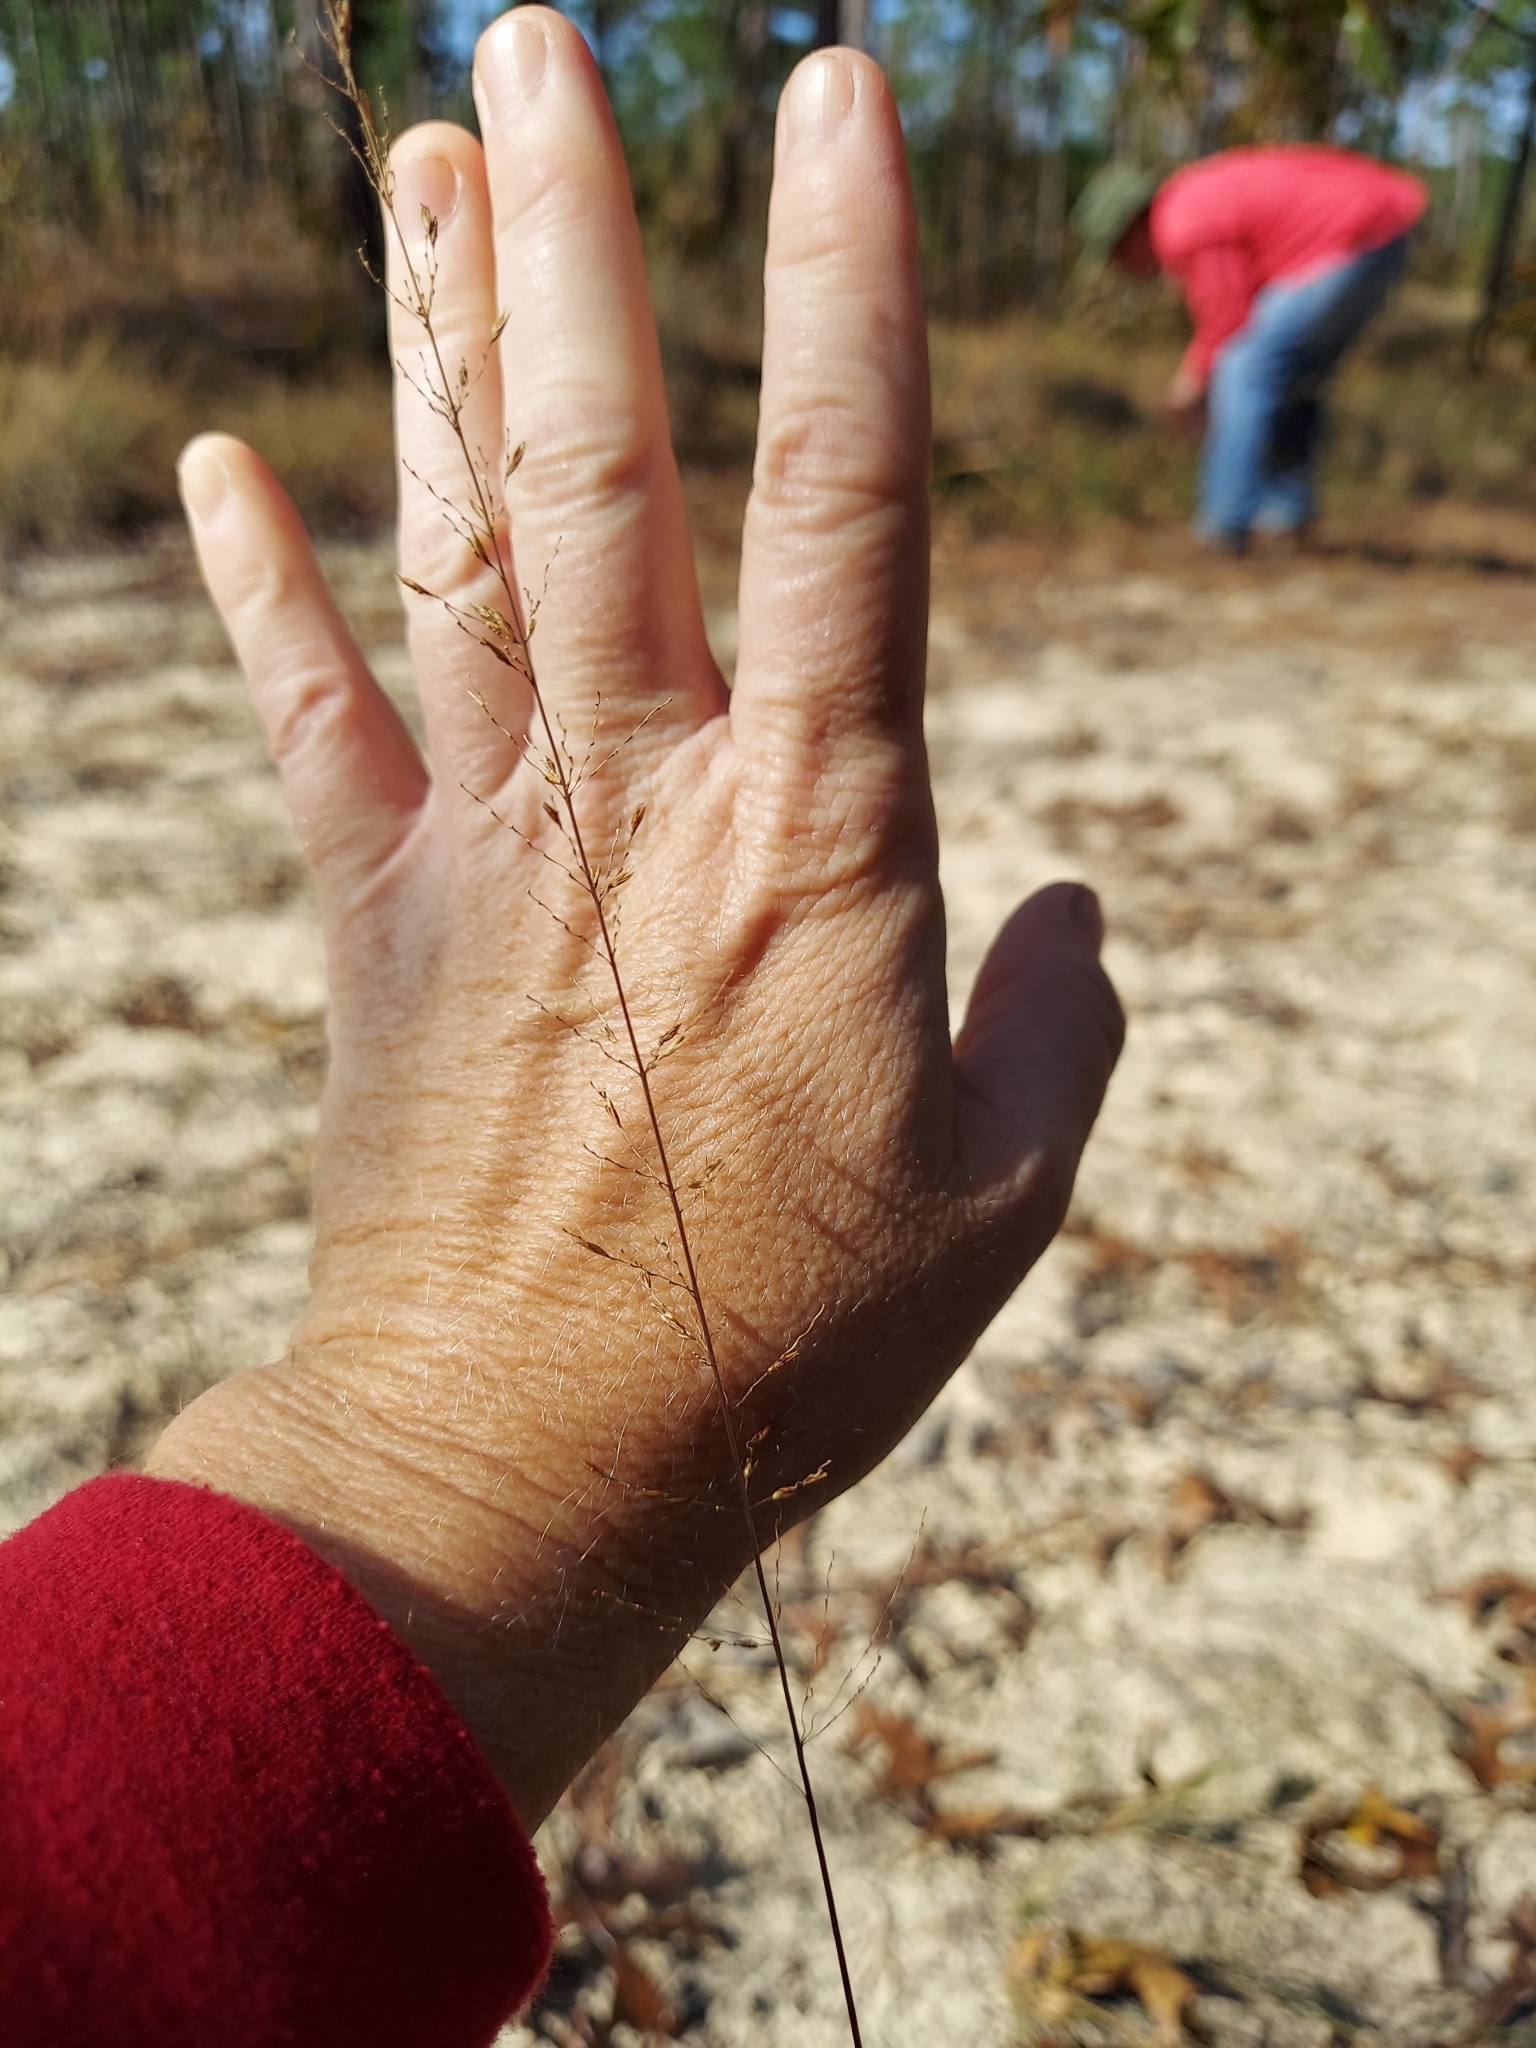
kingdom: Plantae
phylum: Tracheophyta
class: Liliopsida
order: Poales
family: Poaceae
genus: Sporobolus
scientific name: Sporobolus junceus
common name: Lizard grass
